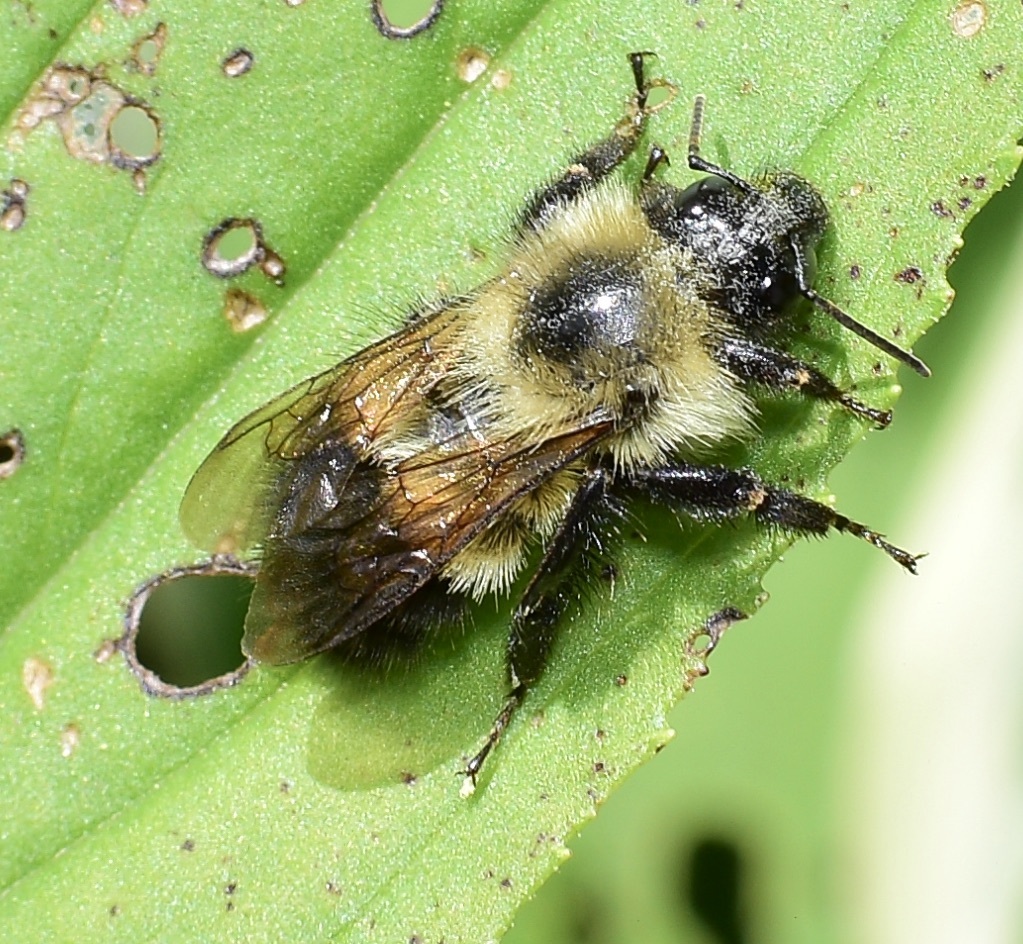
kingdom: Animalia
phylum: Arthropoda
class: Insecta
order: Hymenoptera
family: Apidae
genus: Pyrobombus
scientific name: Pyrobombus
